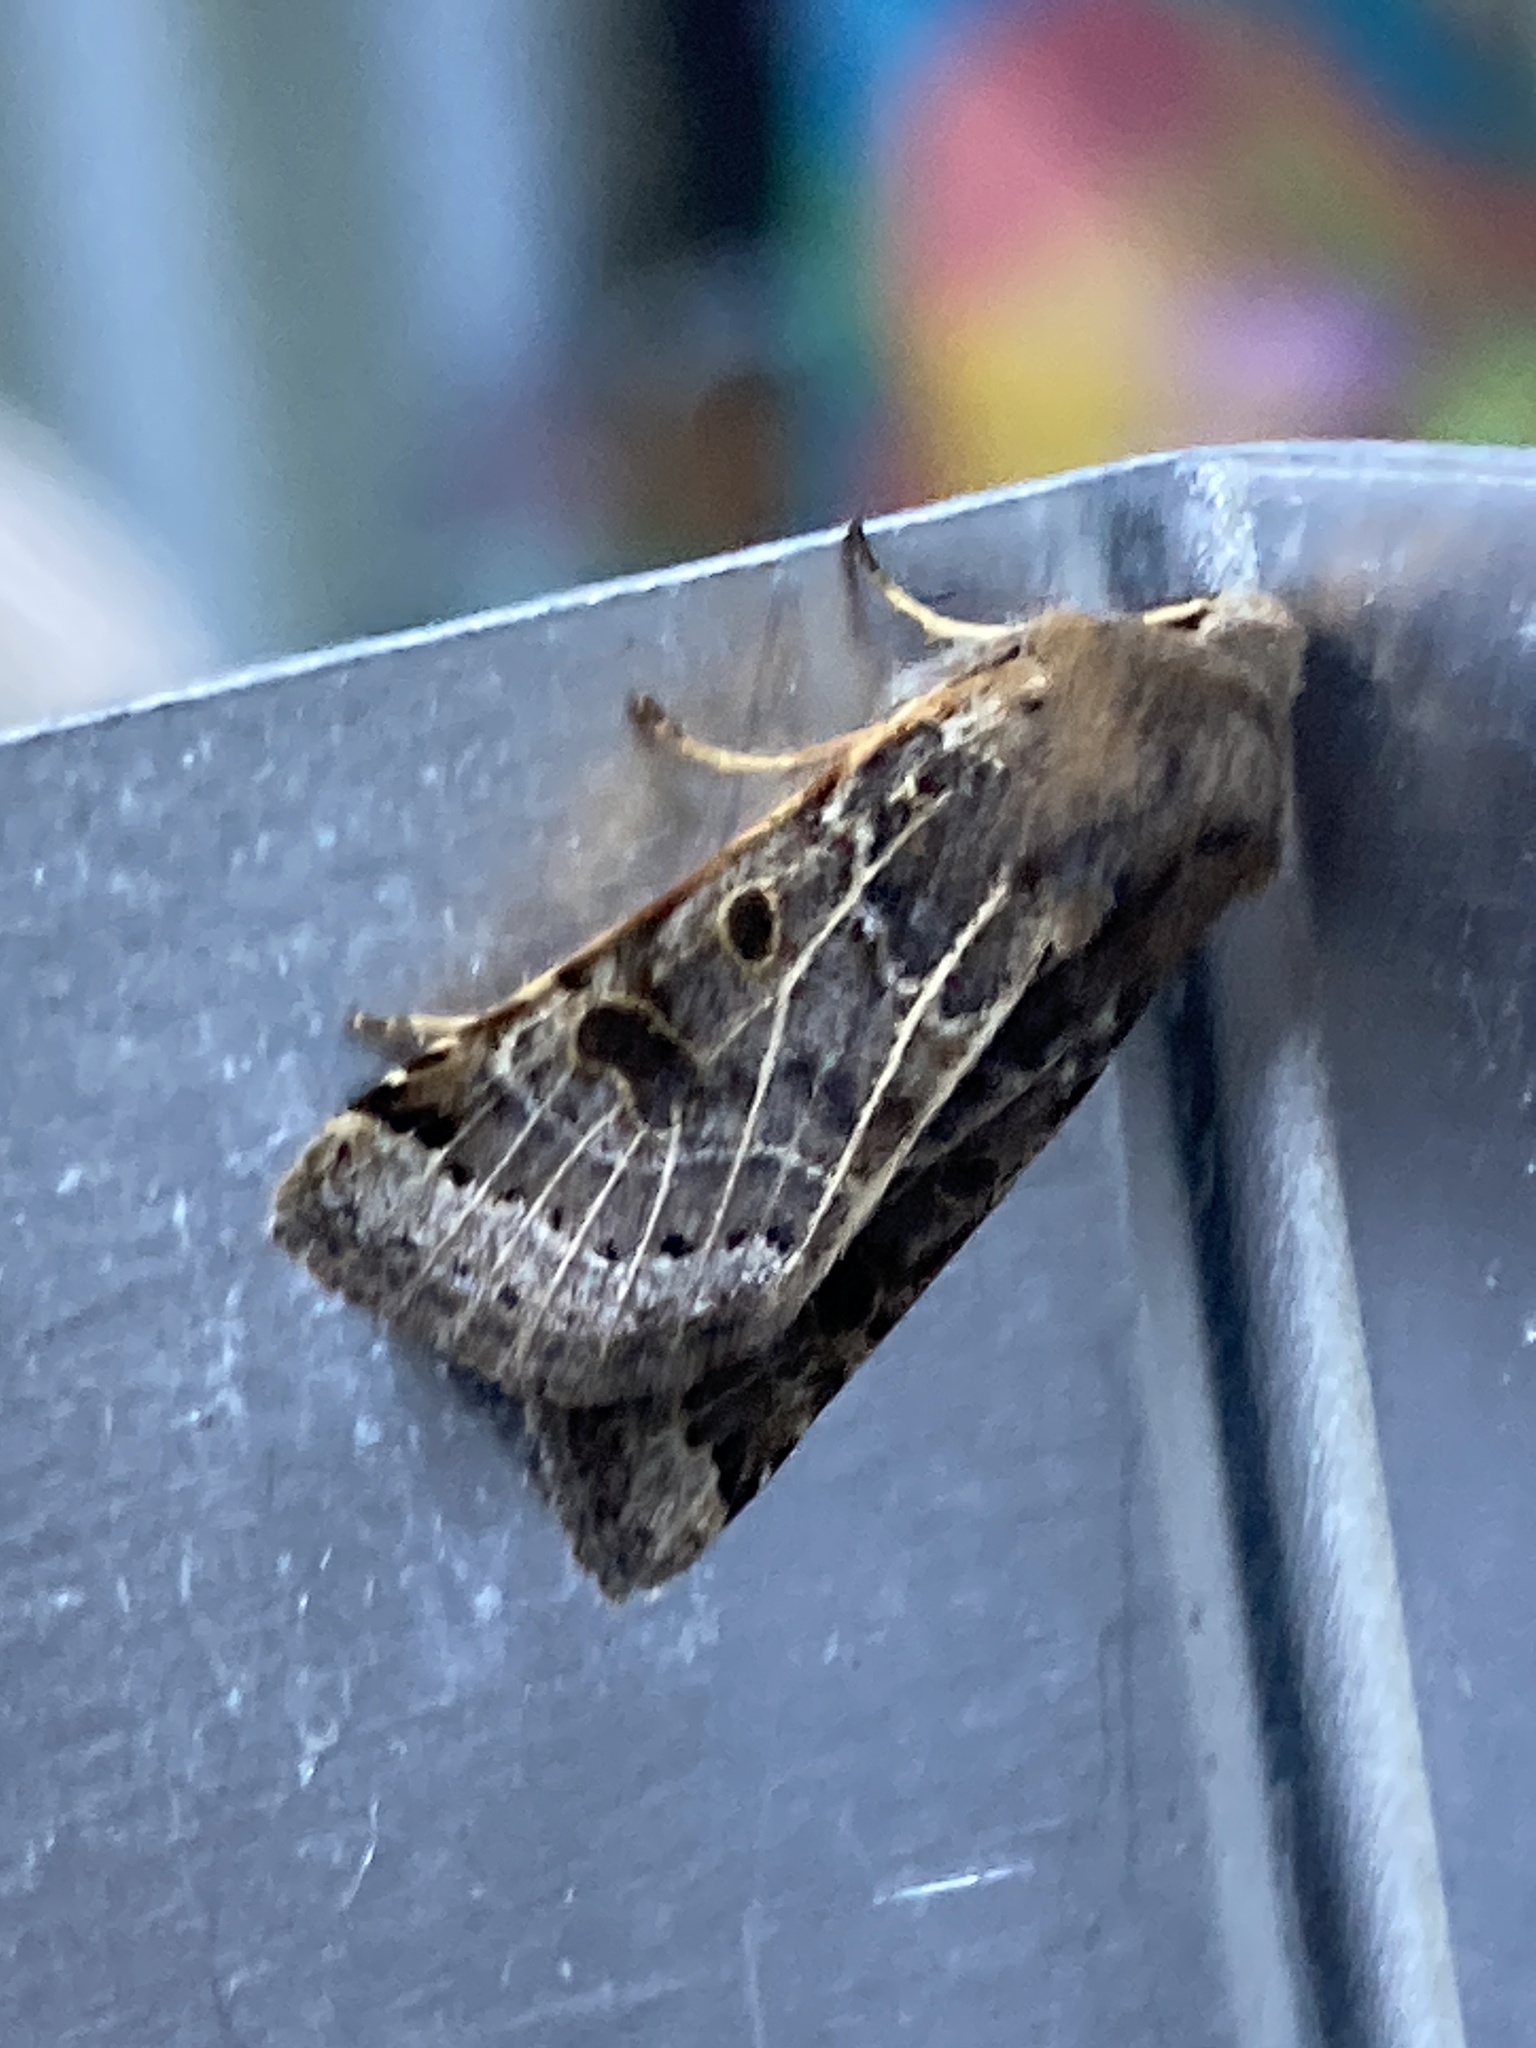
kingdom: Animalia
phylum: Arthropoda
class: Insecta
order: Lepidoptera
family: Noctuidae
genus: Agrochola
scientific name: Agrochola lunosa
